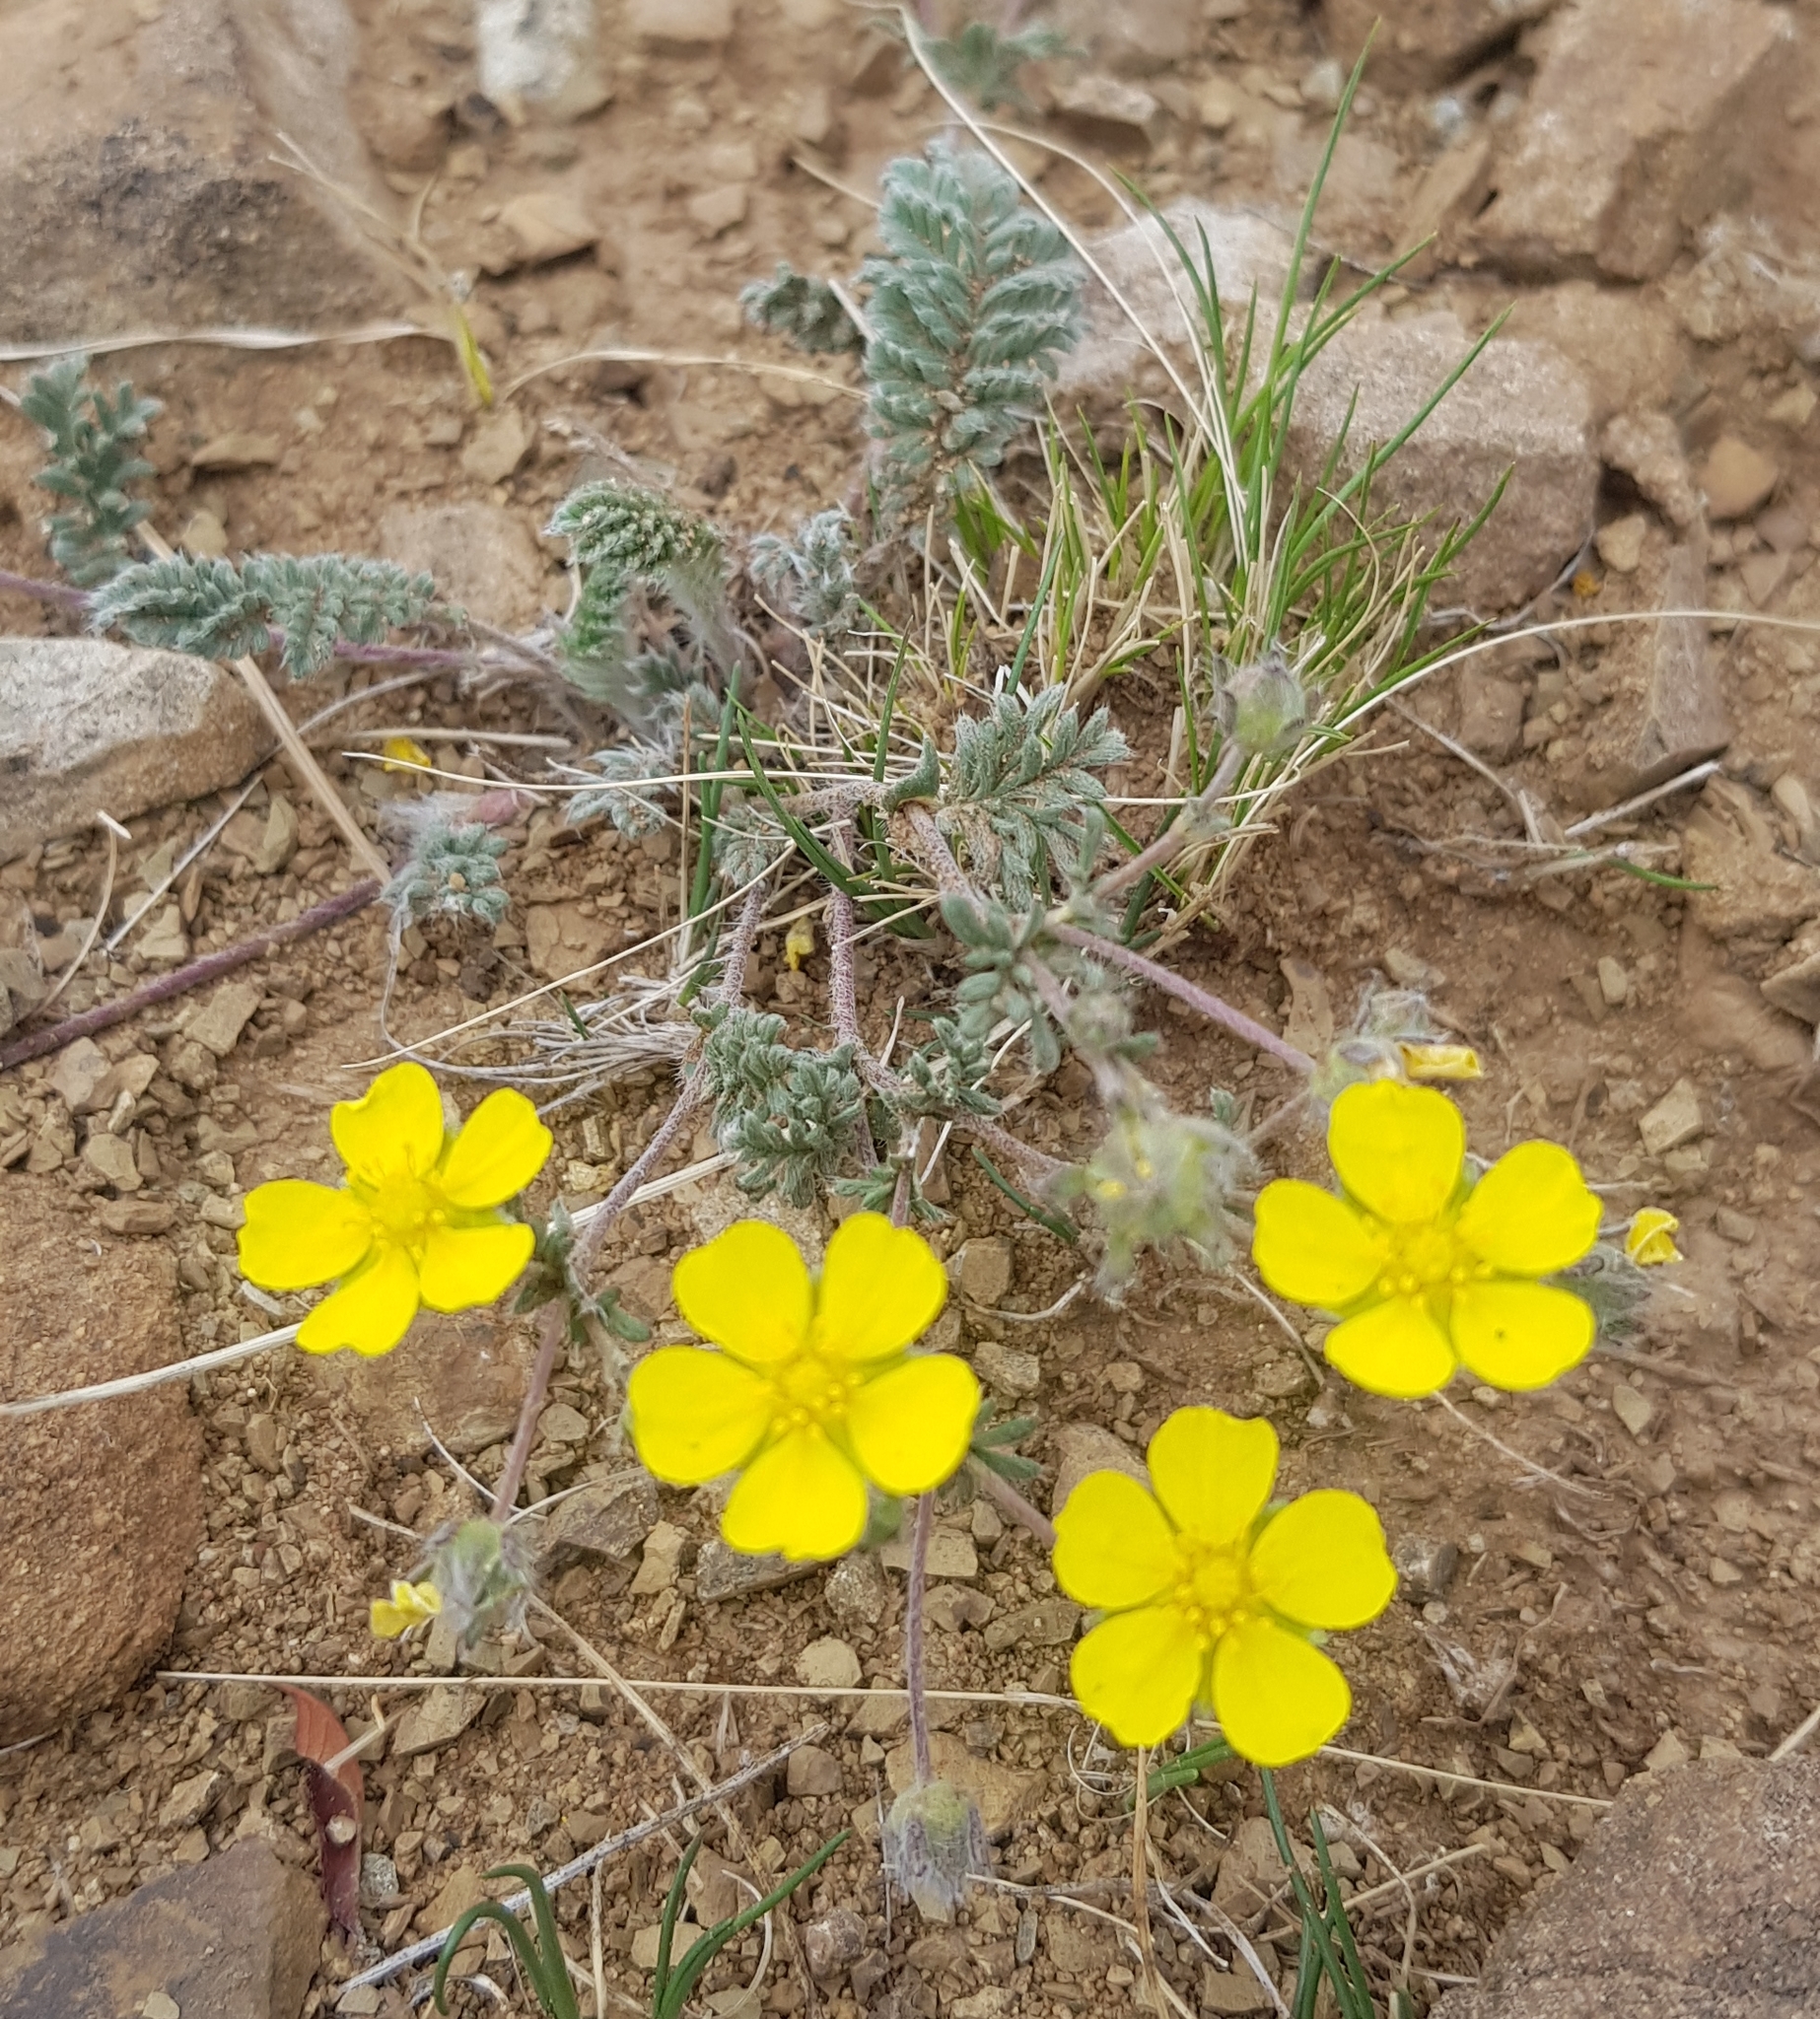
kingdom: Plantae
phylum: Tracheophyta
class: Magnoliopsida
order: Rosales
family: Rosaceae
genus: Potentilla
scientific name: Potentilla sericea
